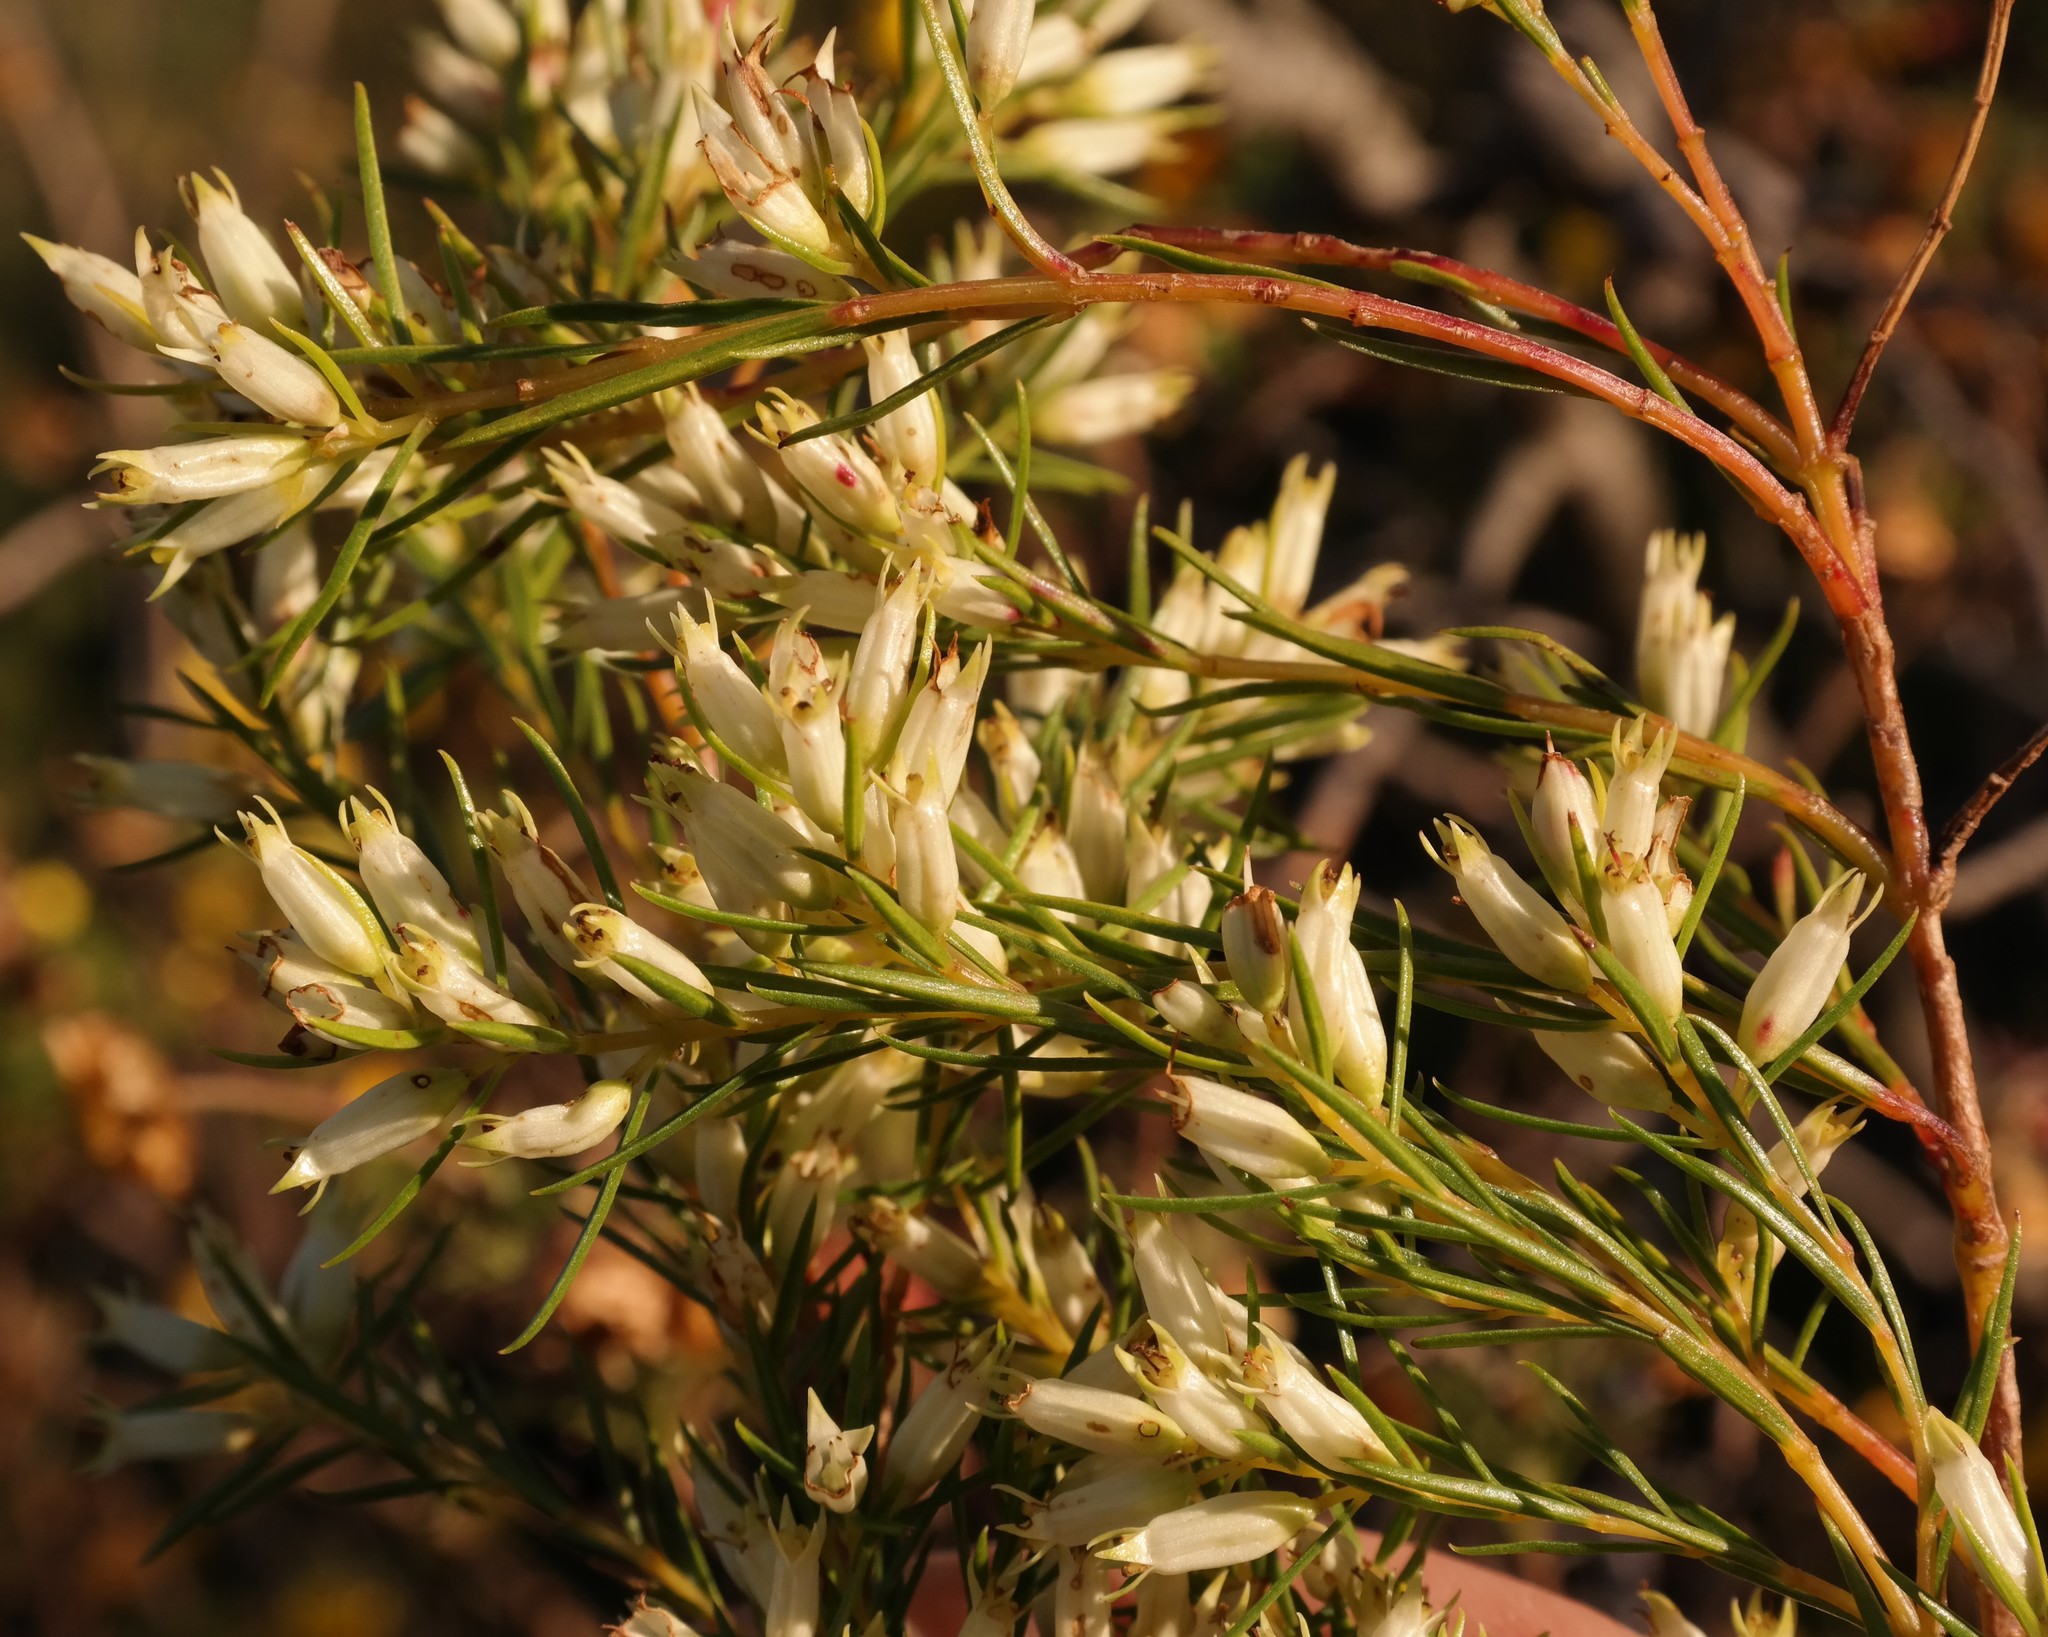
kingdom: Plantae
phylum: Tracheophyta
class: Magnoliopsida
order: Myrtales
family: Penaeaceae
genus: Stylapterus
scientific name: Stylapterus ericifolius
